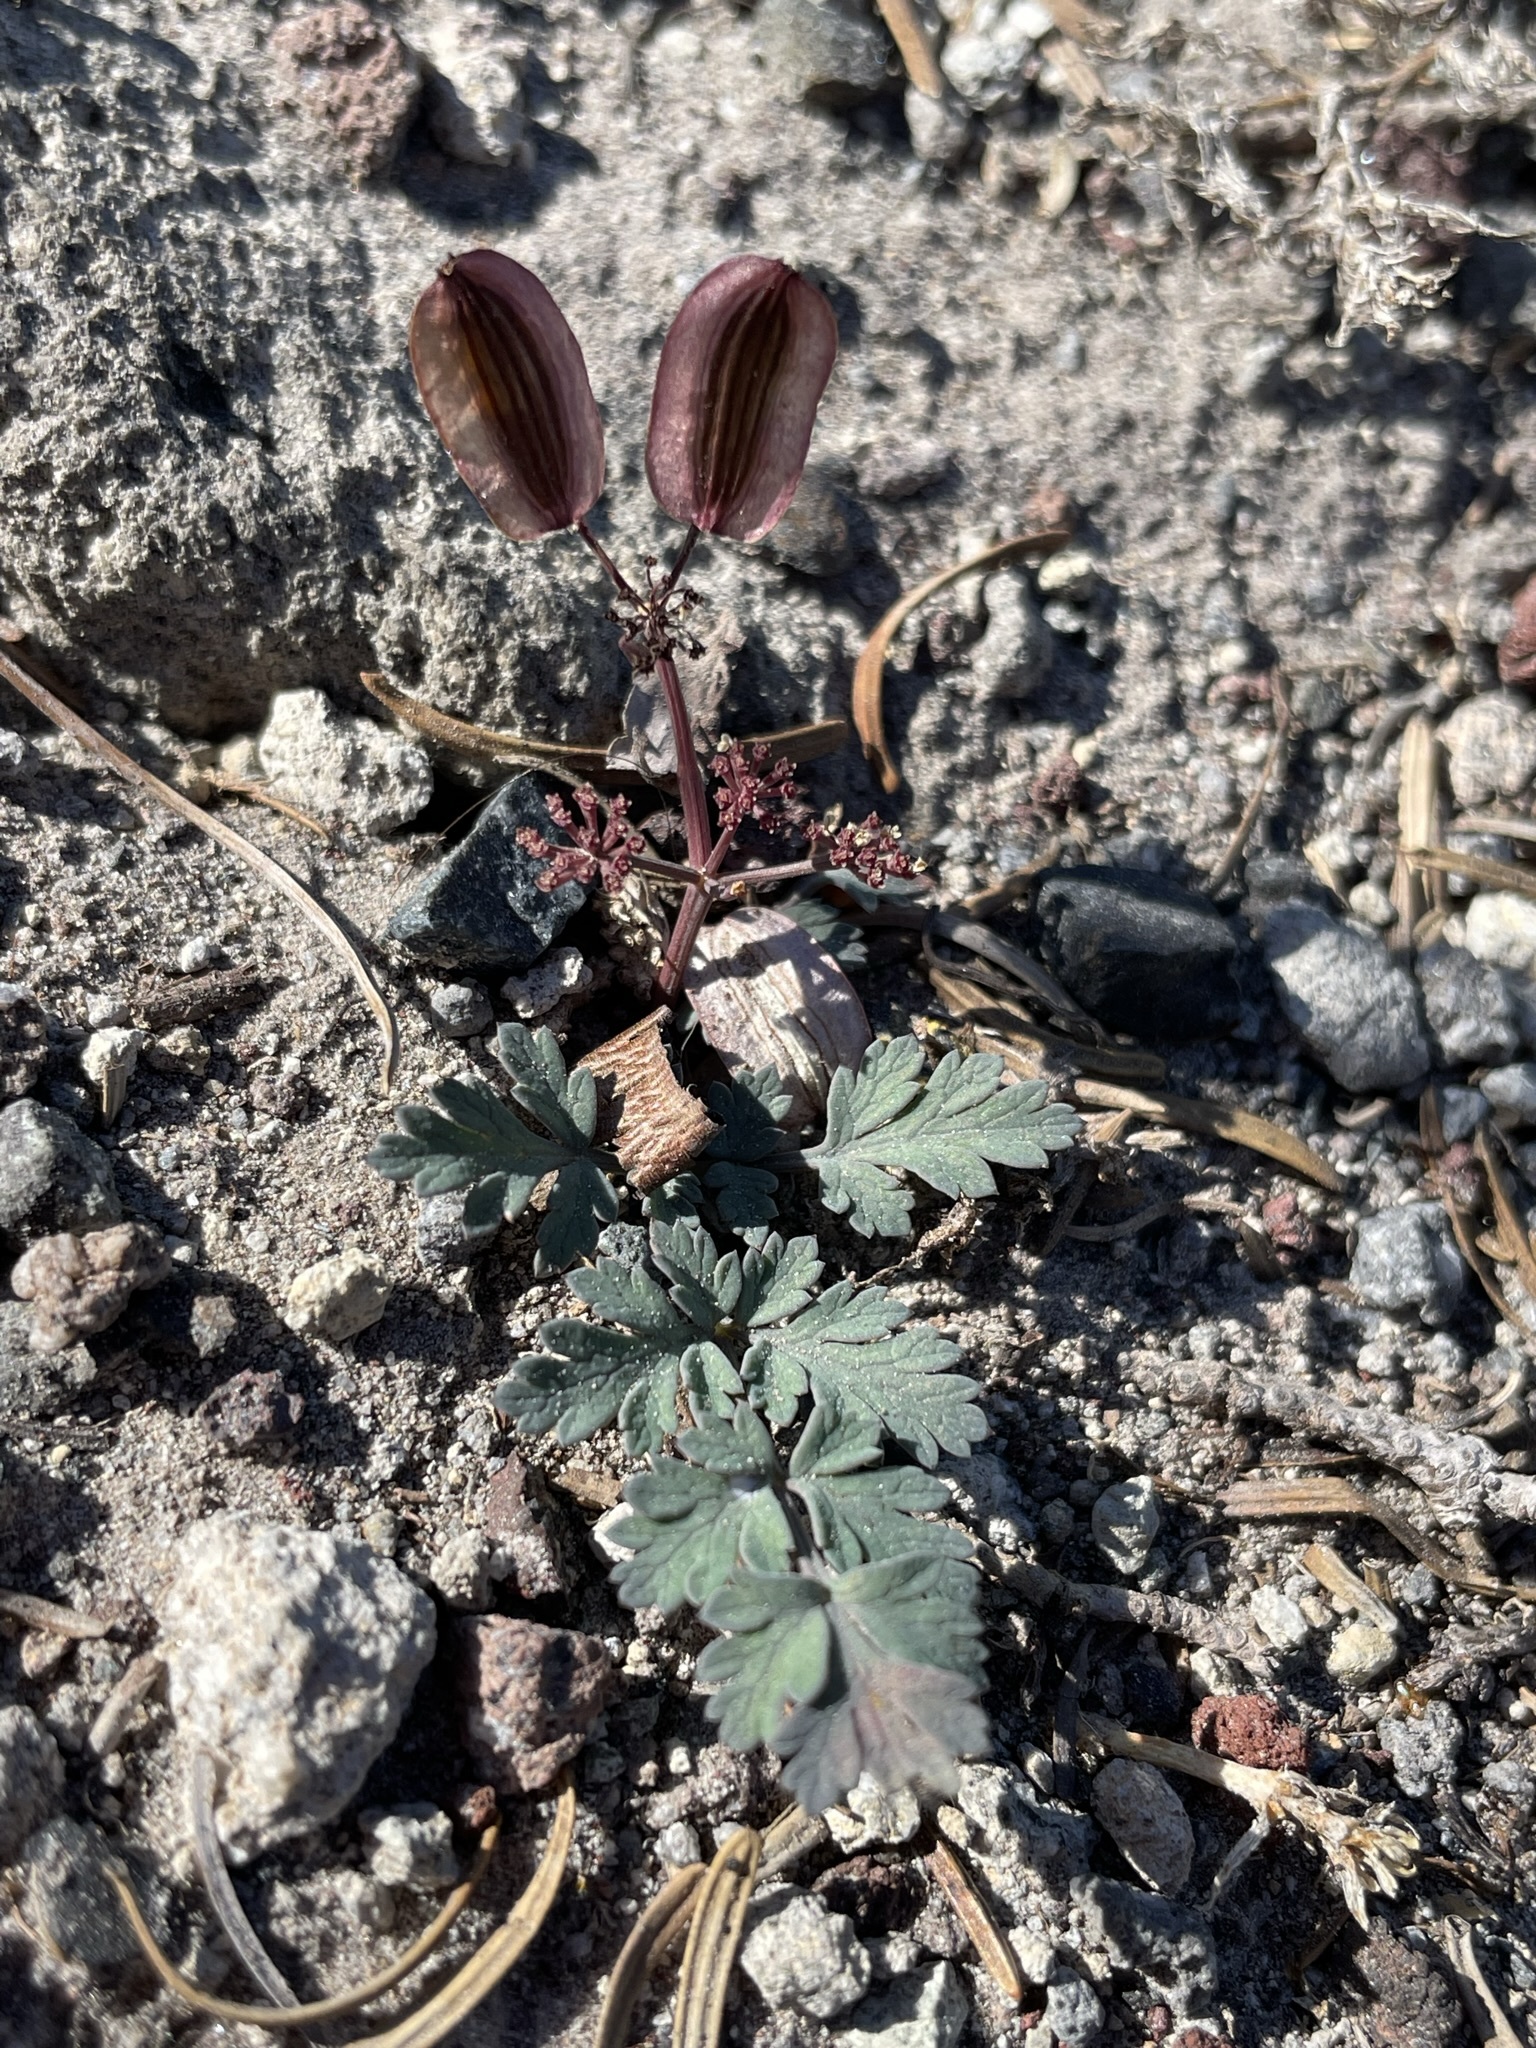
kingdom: Plantae
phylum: Tracheophyta
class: Magnoliopsida
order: Apiales
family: Apiaceae
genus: Lomatium
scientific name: Lomatium martindalei
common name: Cascade desert-parsley
